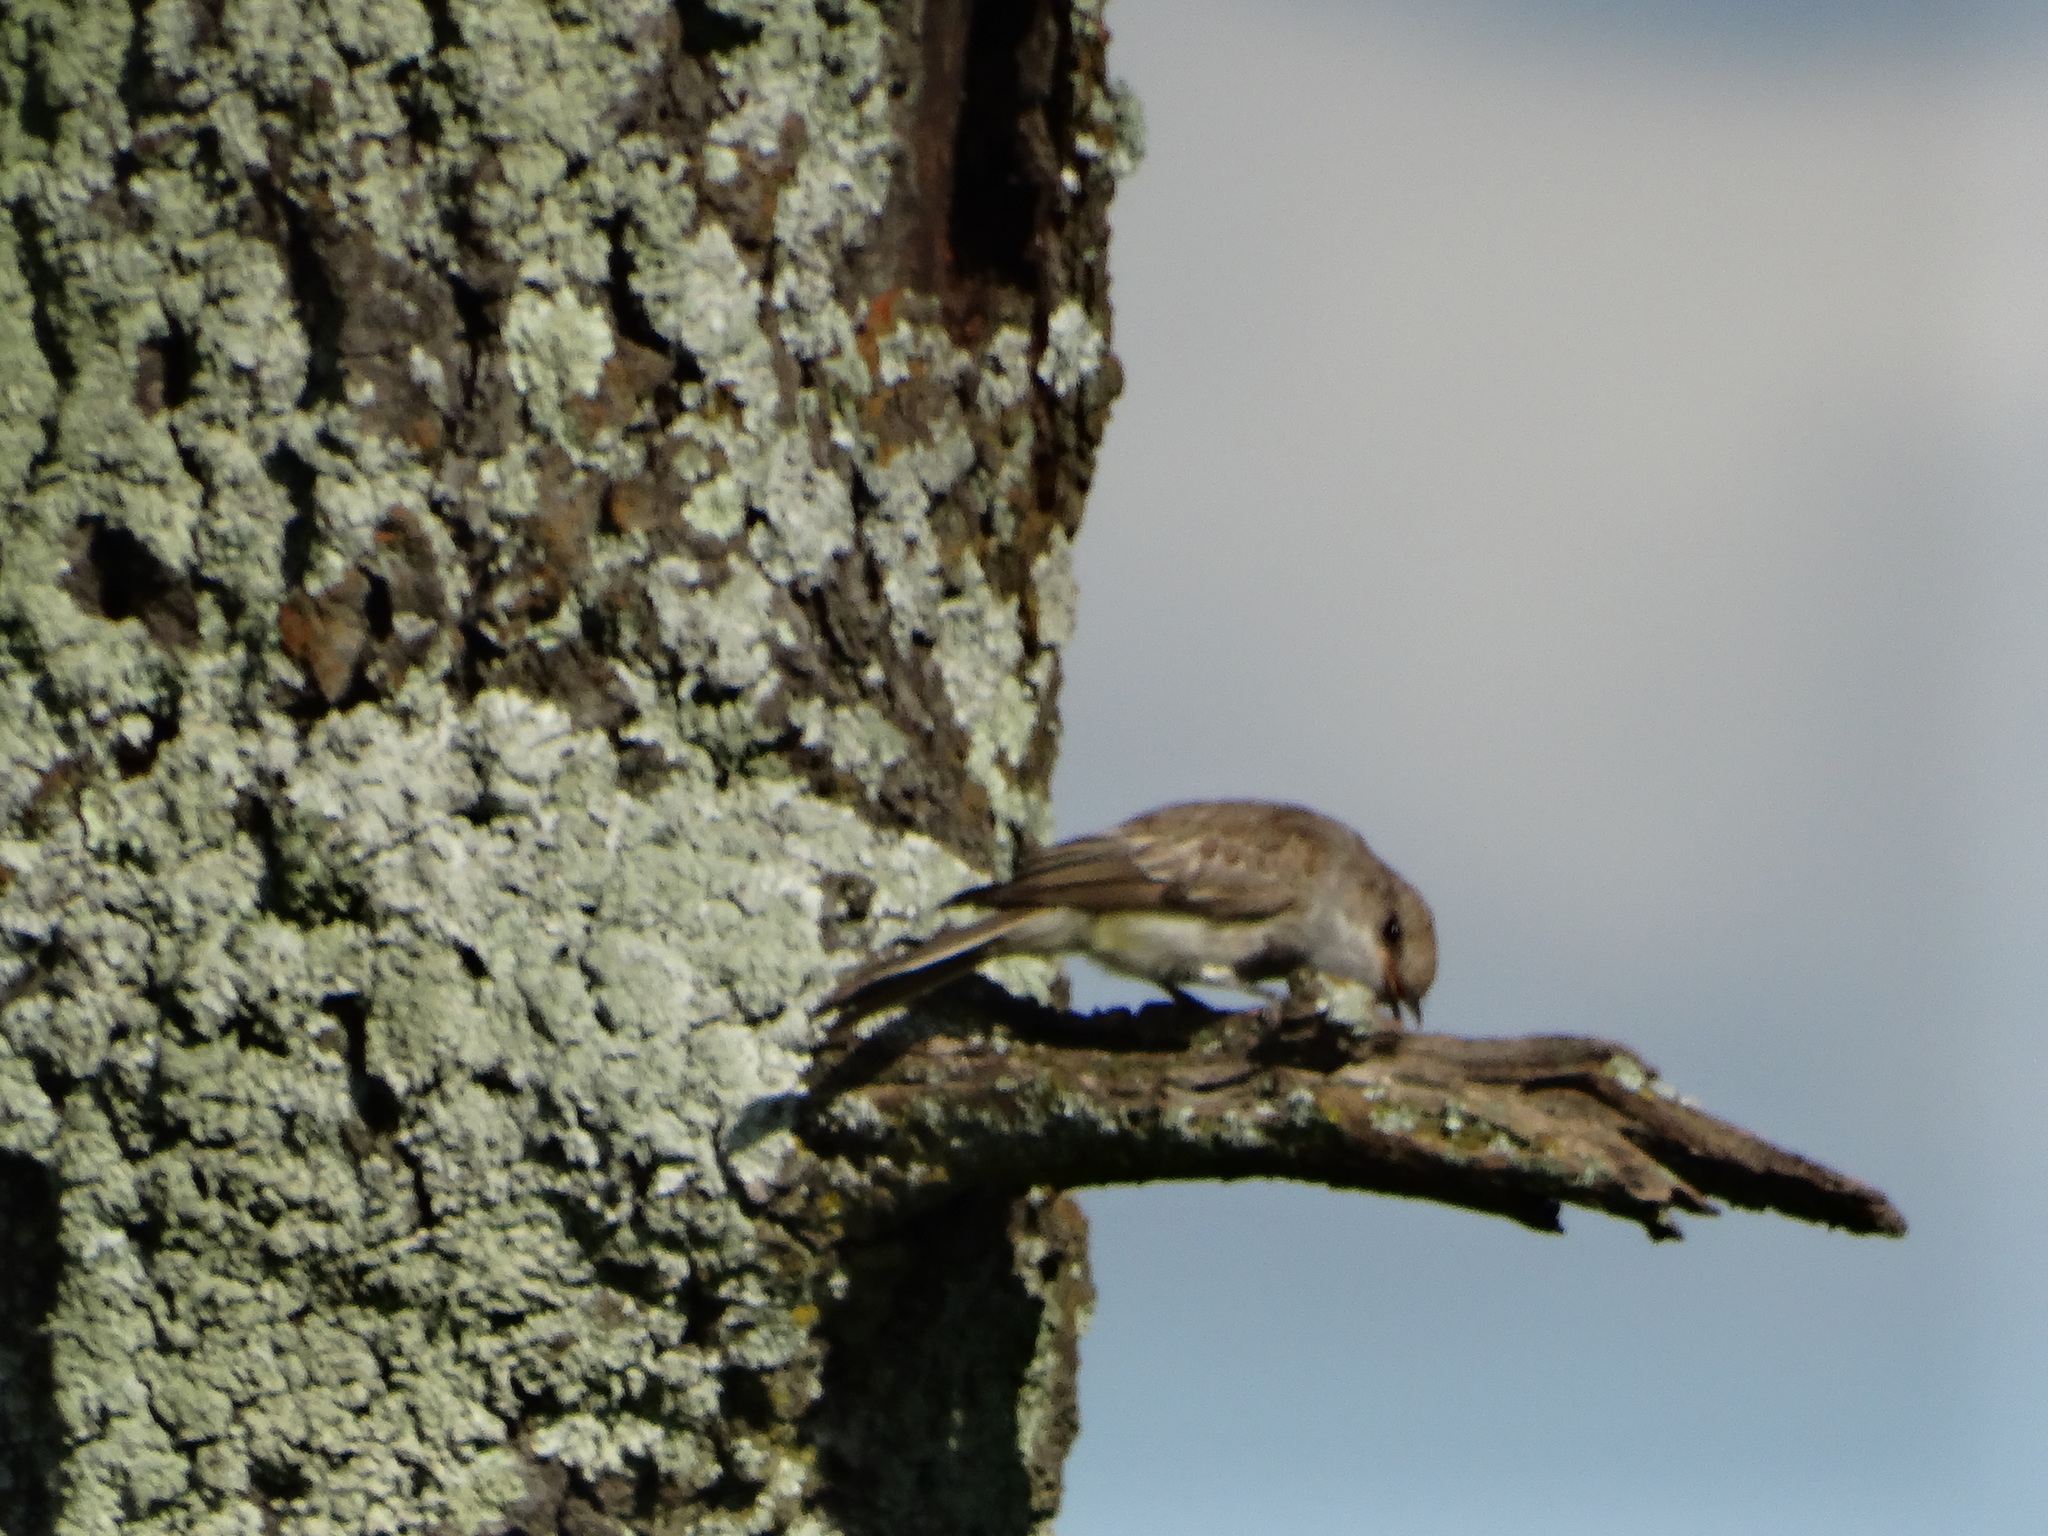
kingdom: Animalia
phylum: Chordata
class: Aves
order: Passeriformes
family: Tyrannidae
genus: Pyrocephalus
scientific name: Pyrocephalus rubinus
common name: Vermilion flycatcher
